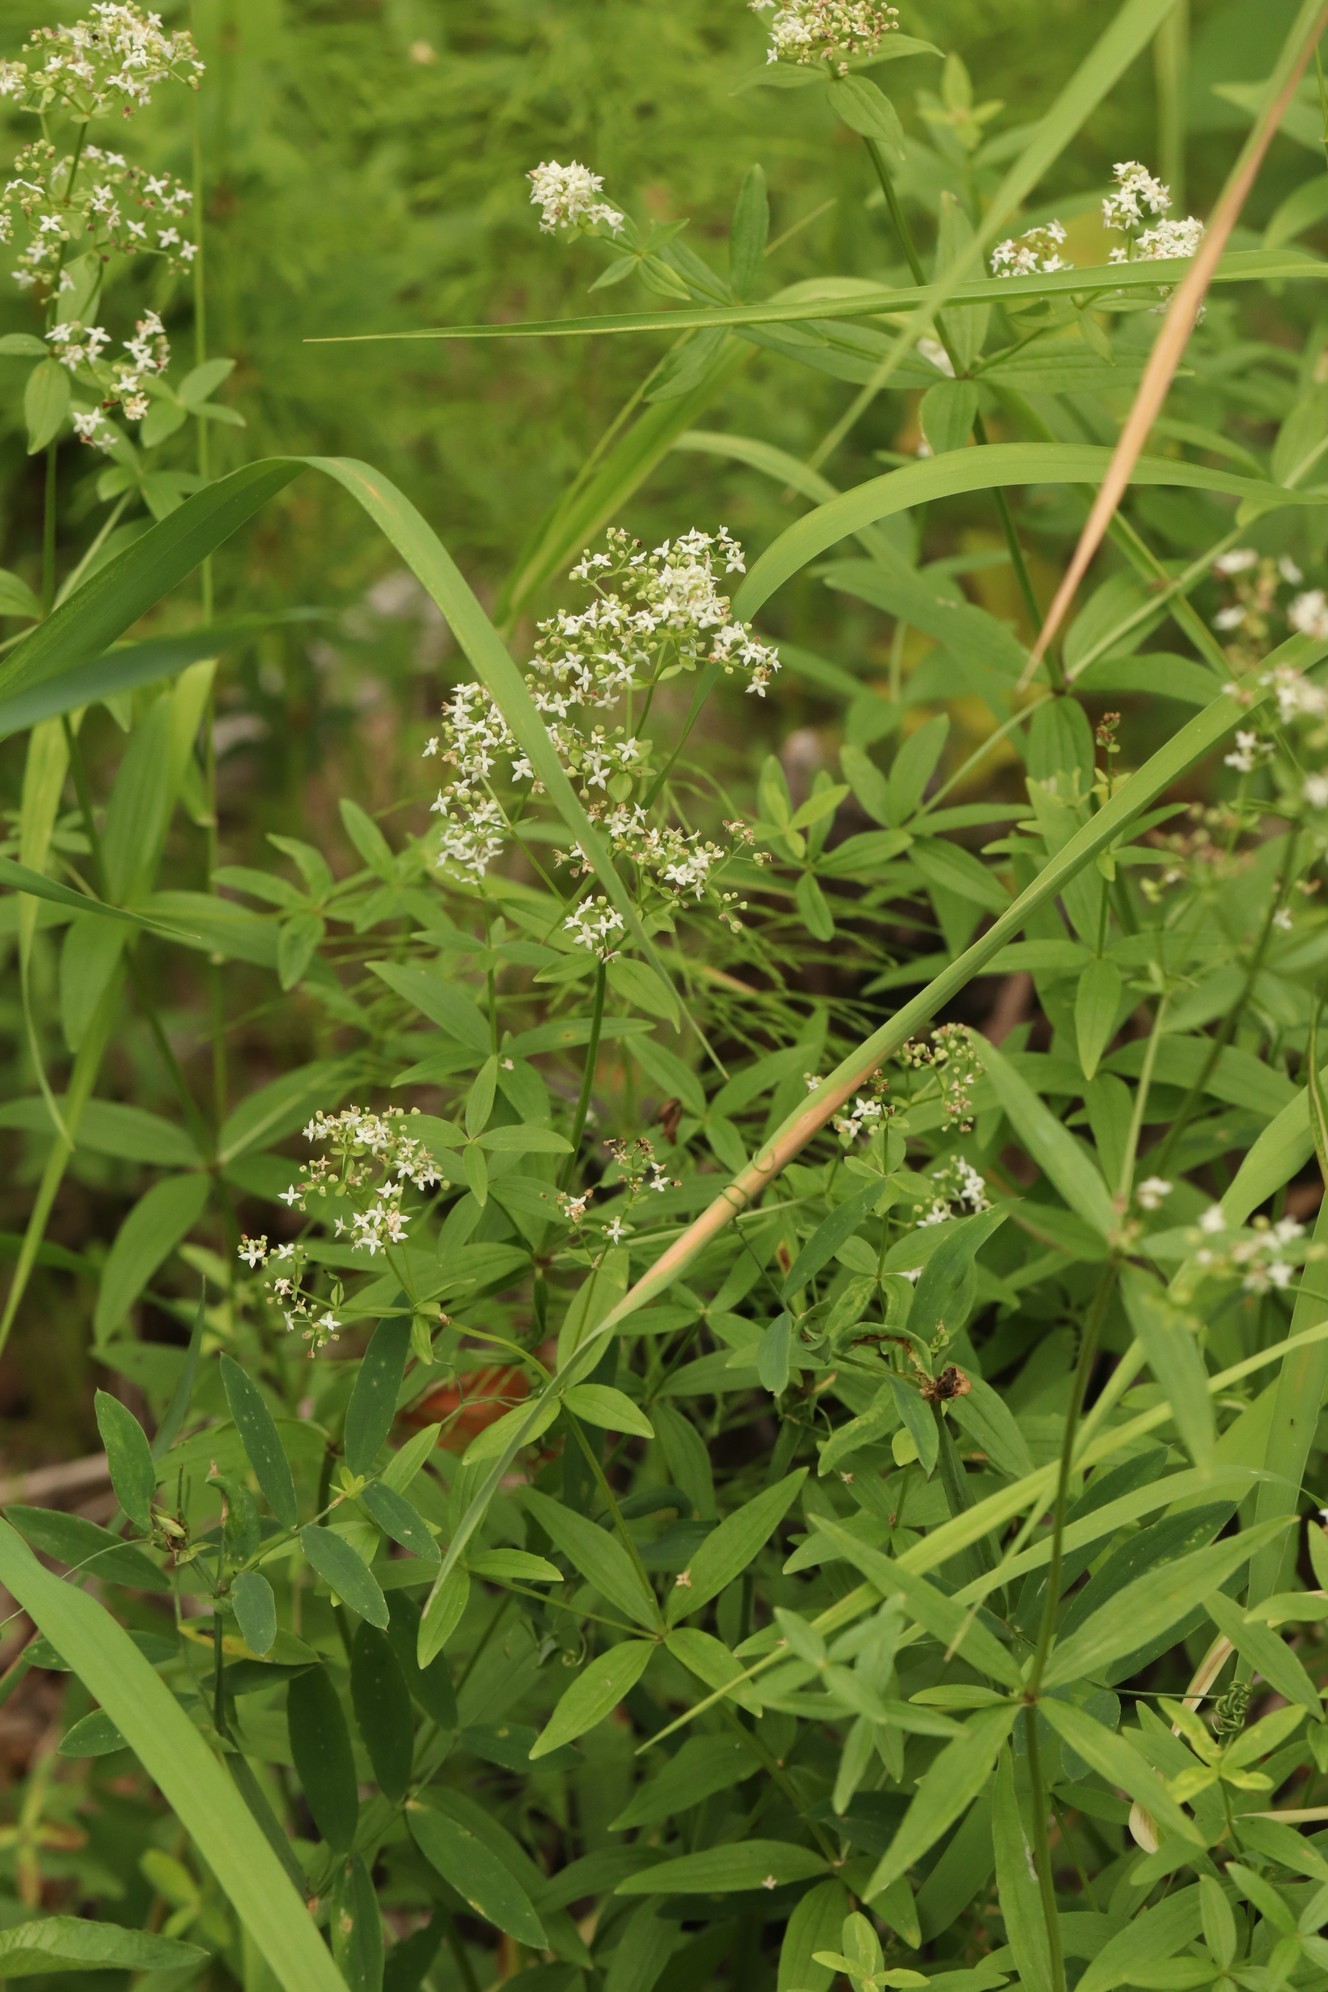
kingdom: Plantae
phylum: Tracheophyta
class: Magnoliopsida
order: Gentianales
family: Rubiaceae
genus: Galium
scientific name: Galium boreale
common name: Northern bedstraw
